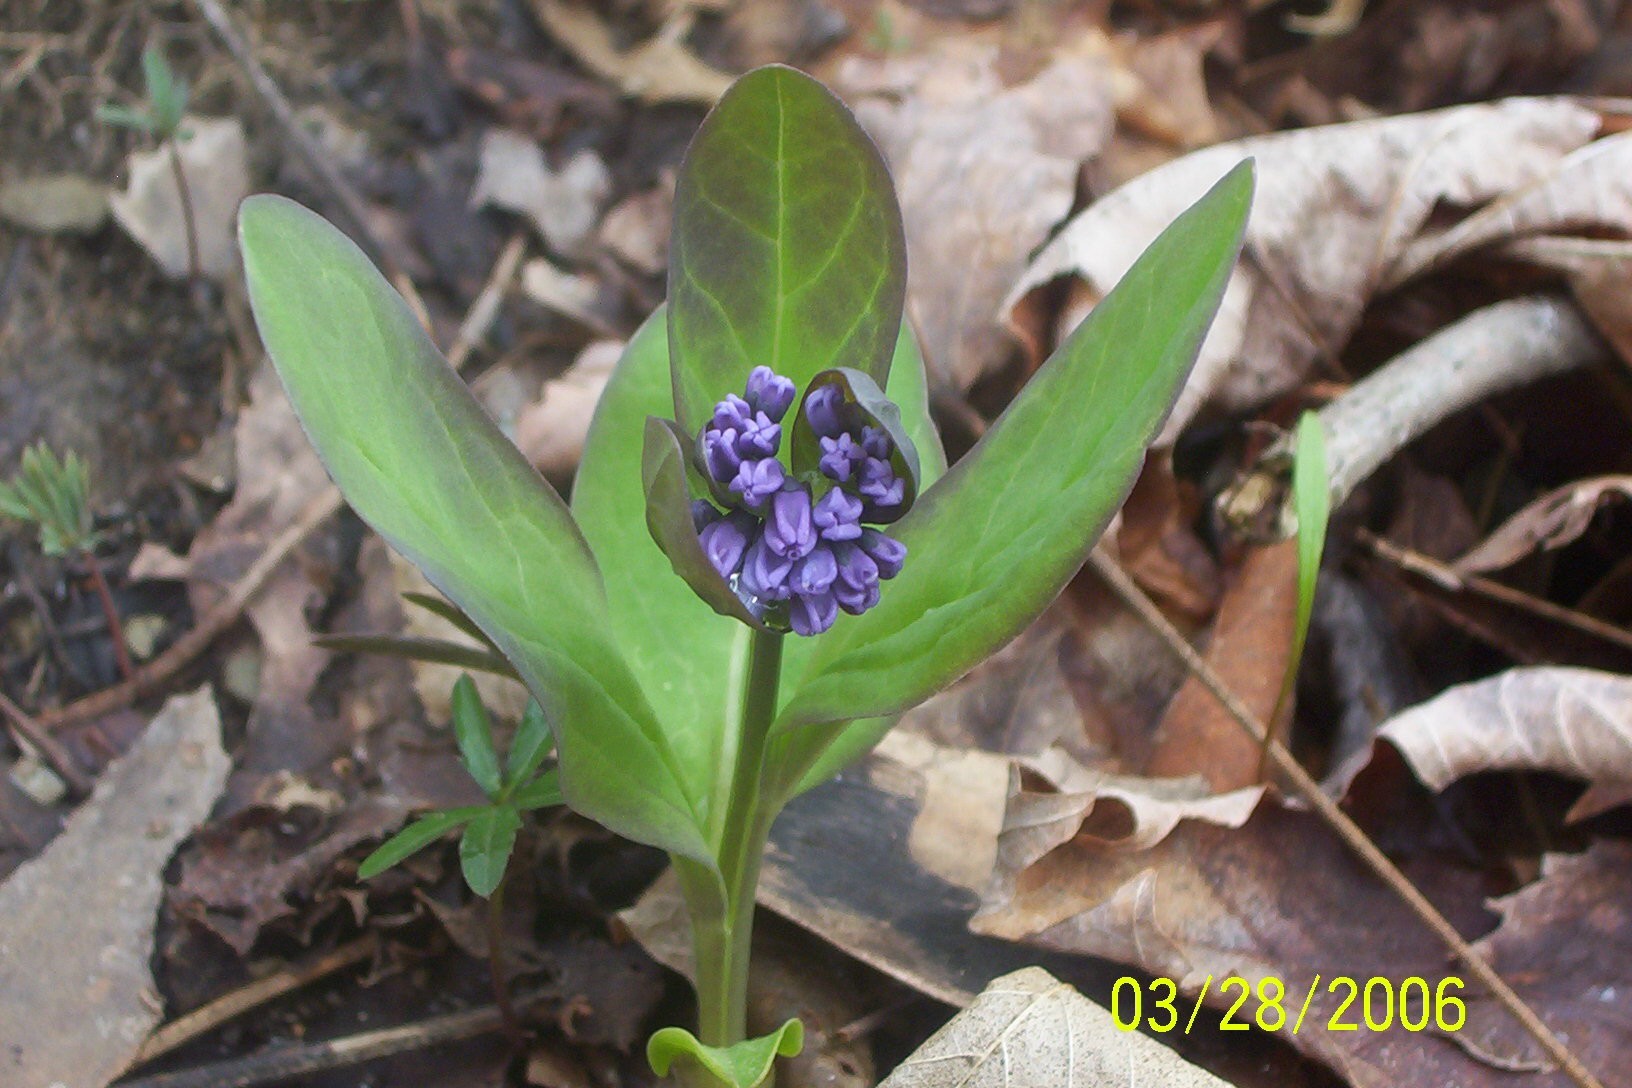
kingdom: Plantae
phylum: Tracheophyta
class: Magnoliopsida
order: Boraginales
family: Boraginaceae
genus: Mertensia
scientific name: Mertensia virginica
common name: Virginia bluebells
